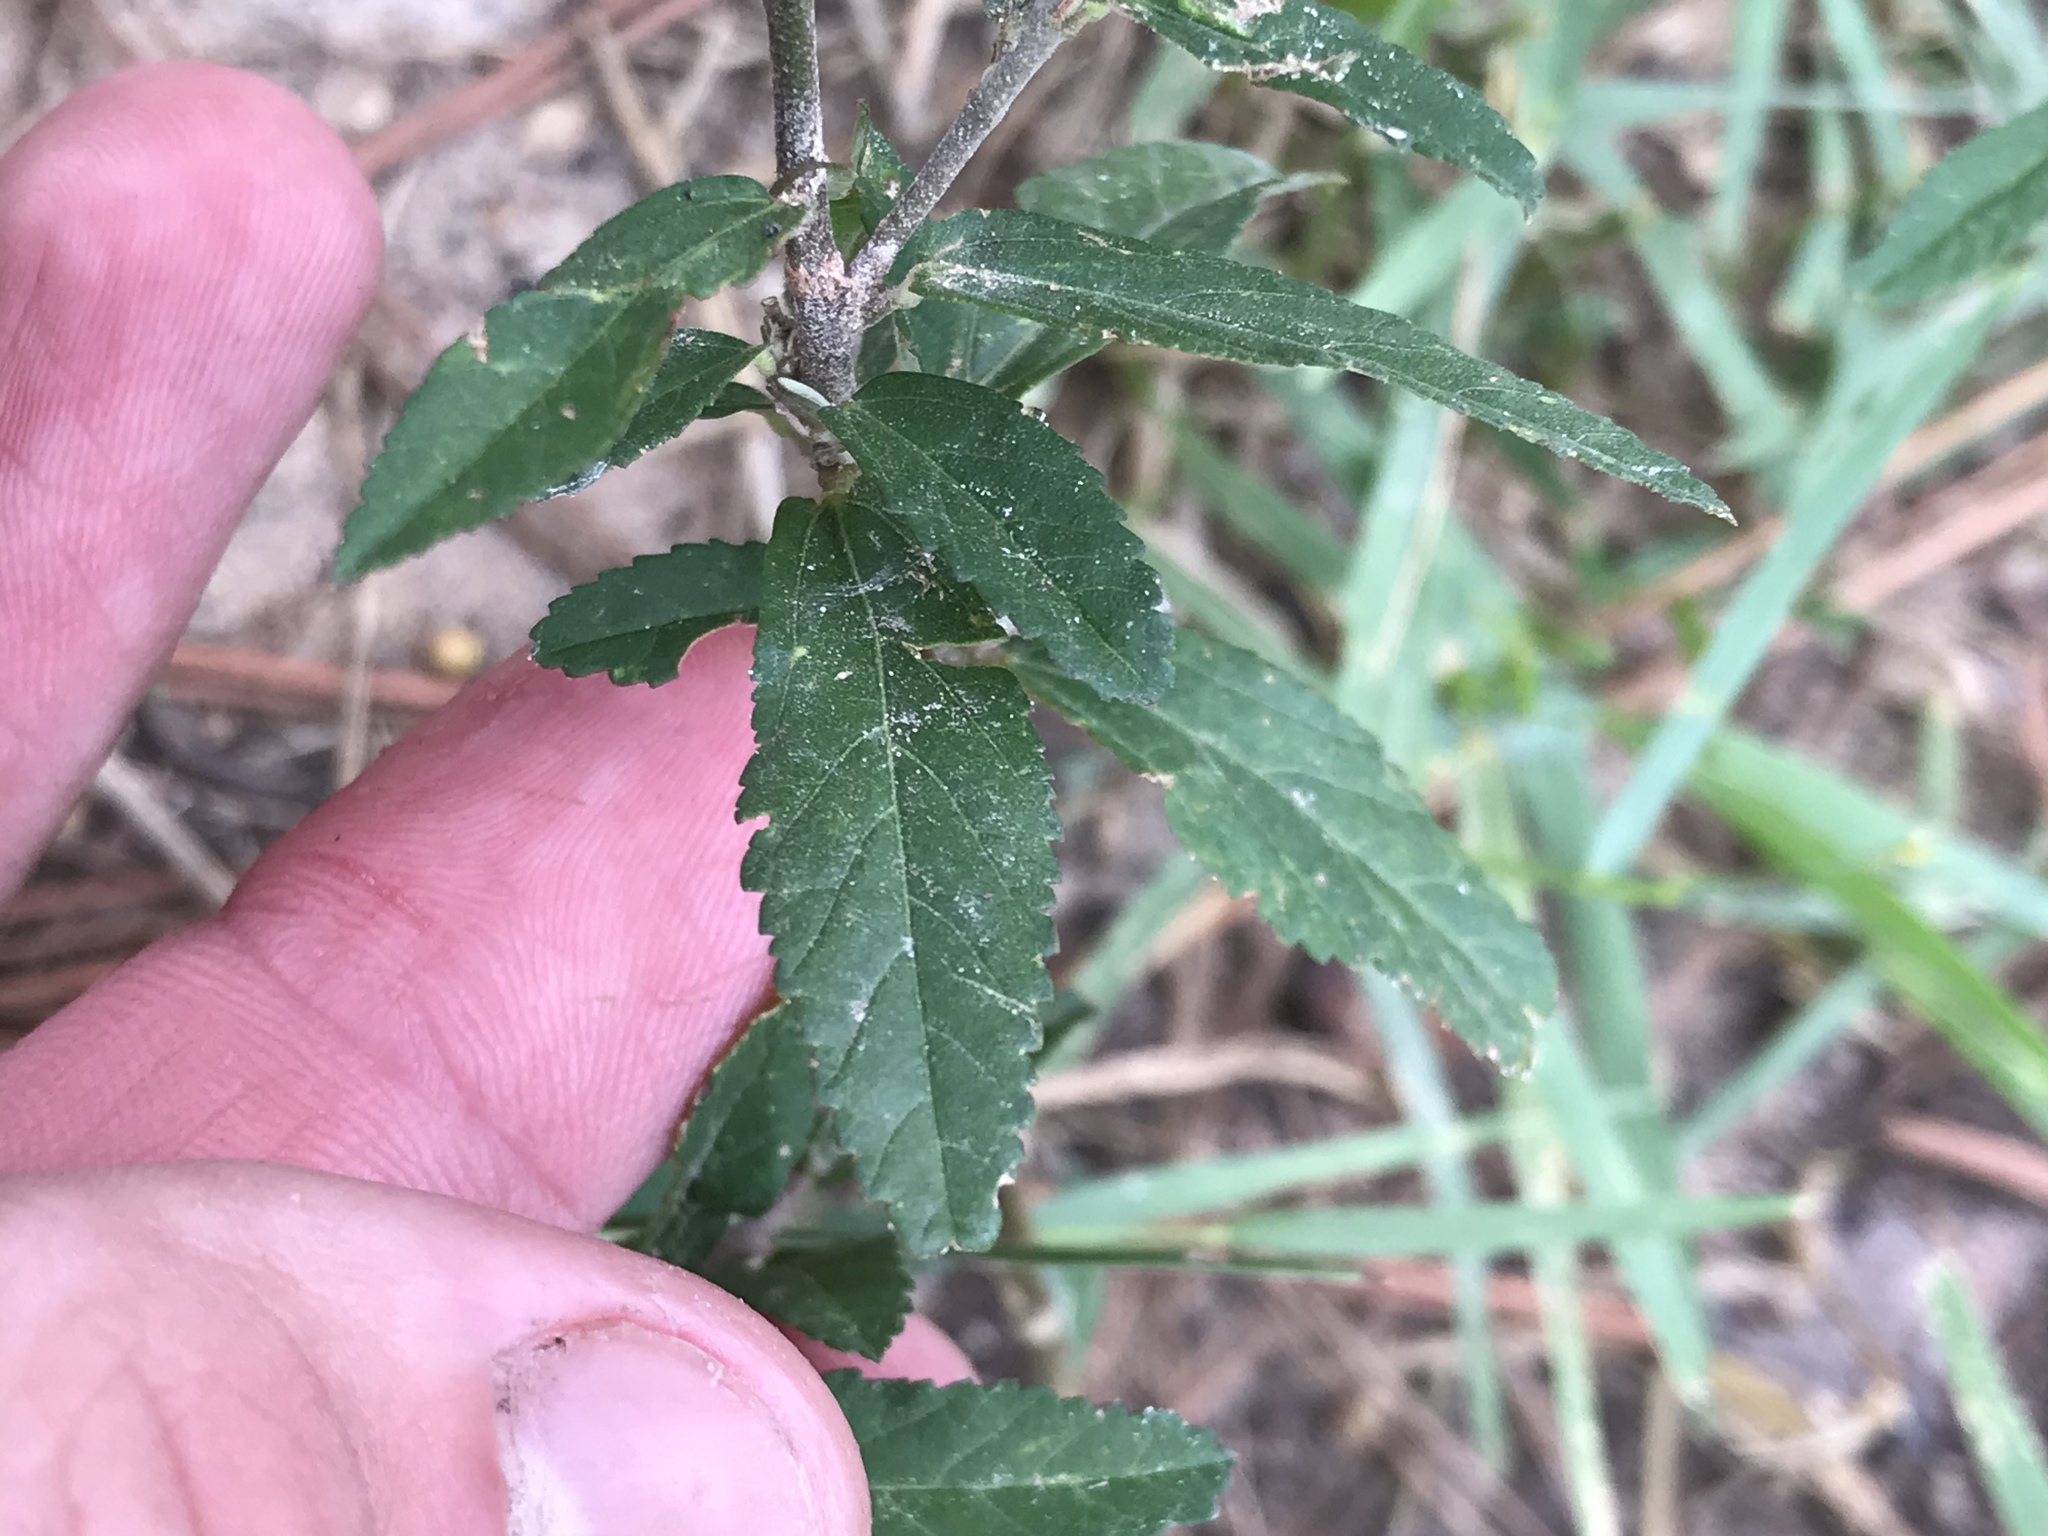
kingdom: Plantae
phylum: Tracheophyta
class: Magnoliopsida
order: Malvales
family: Malvaceae
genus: Sida
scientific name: Sida rhombifolia
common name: Queensland-hemp
